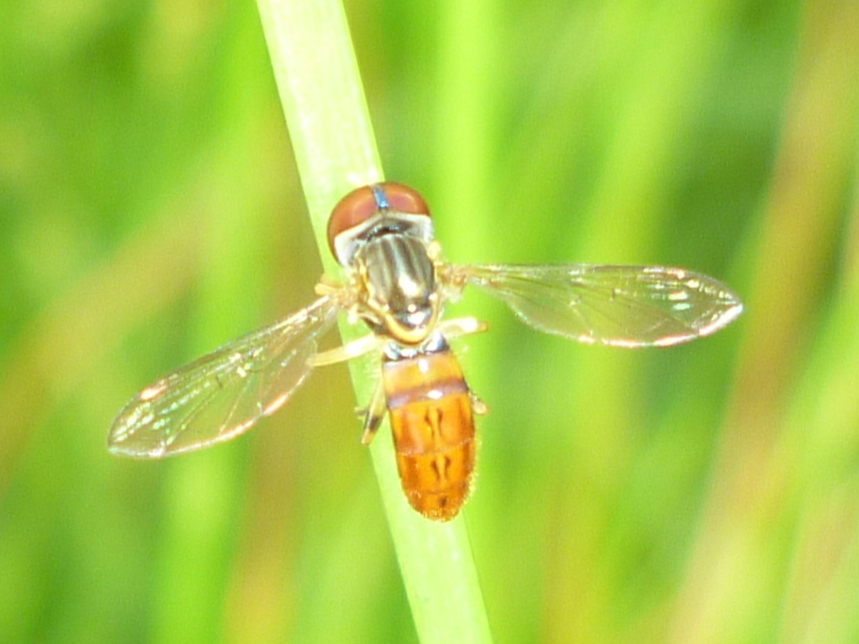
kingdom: Animalia
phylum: Arthropoda
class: Insecta
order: Diptera
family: Syrphidae
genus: Toxomerus
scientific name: Toxomerus boscii
